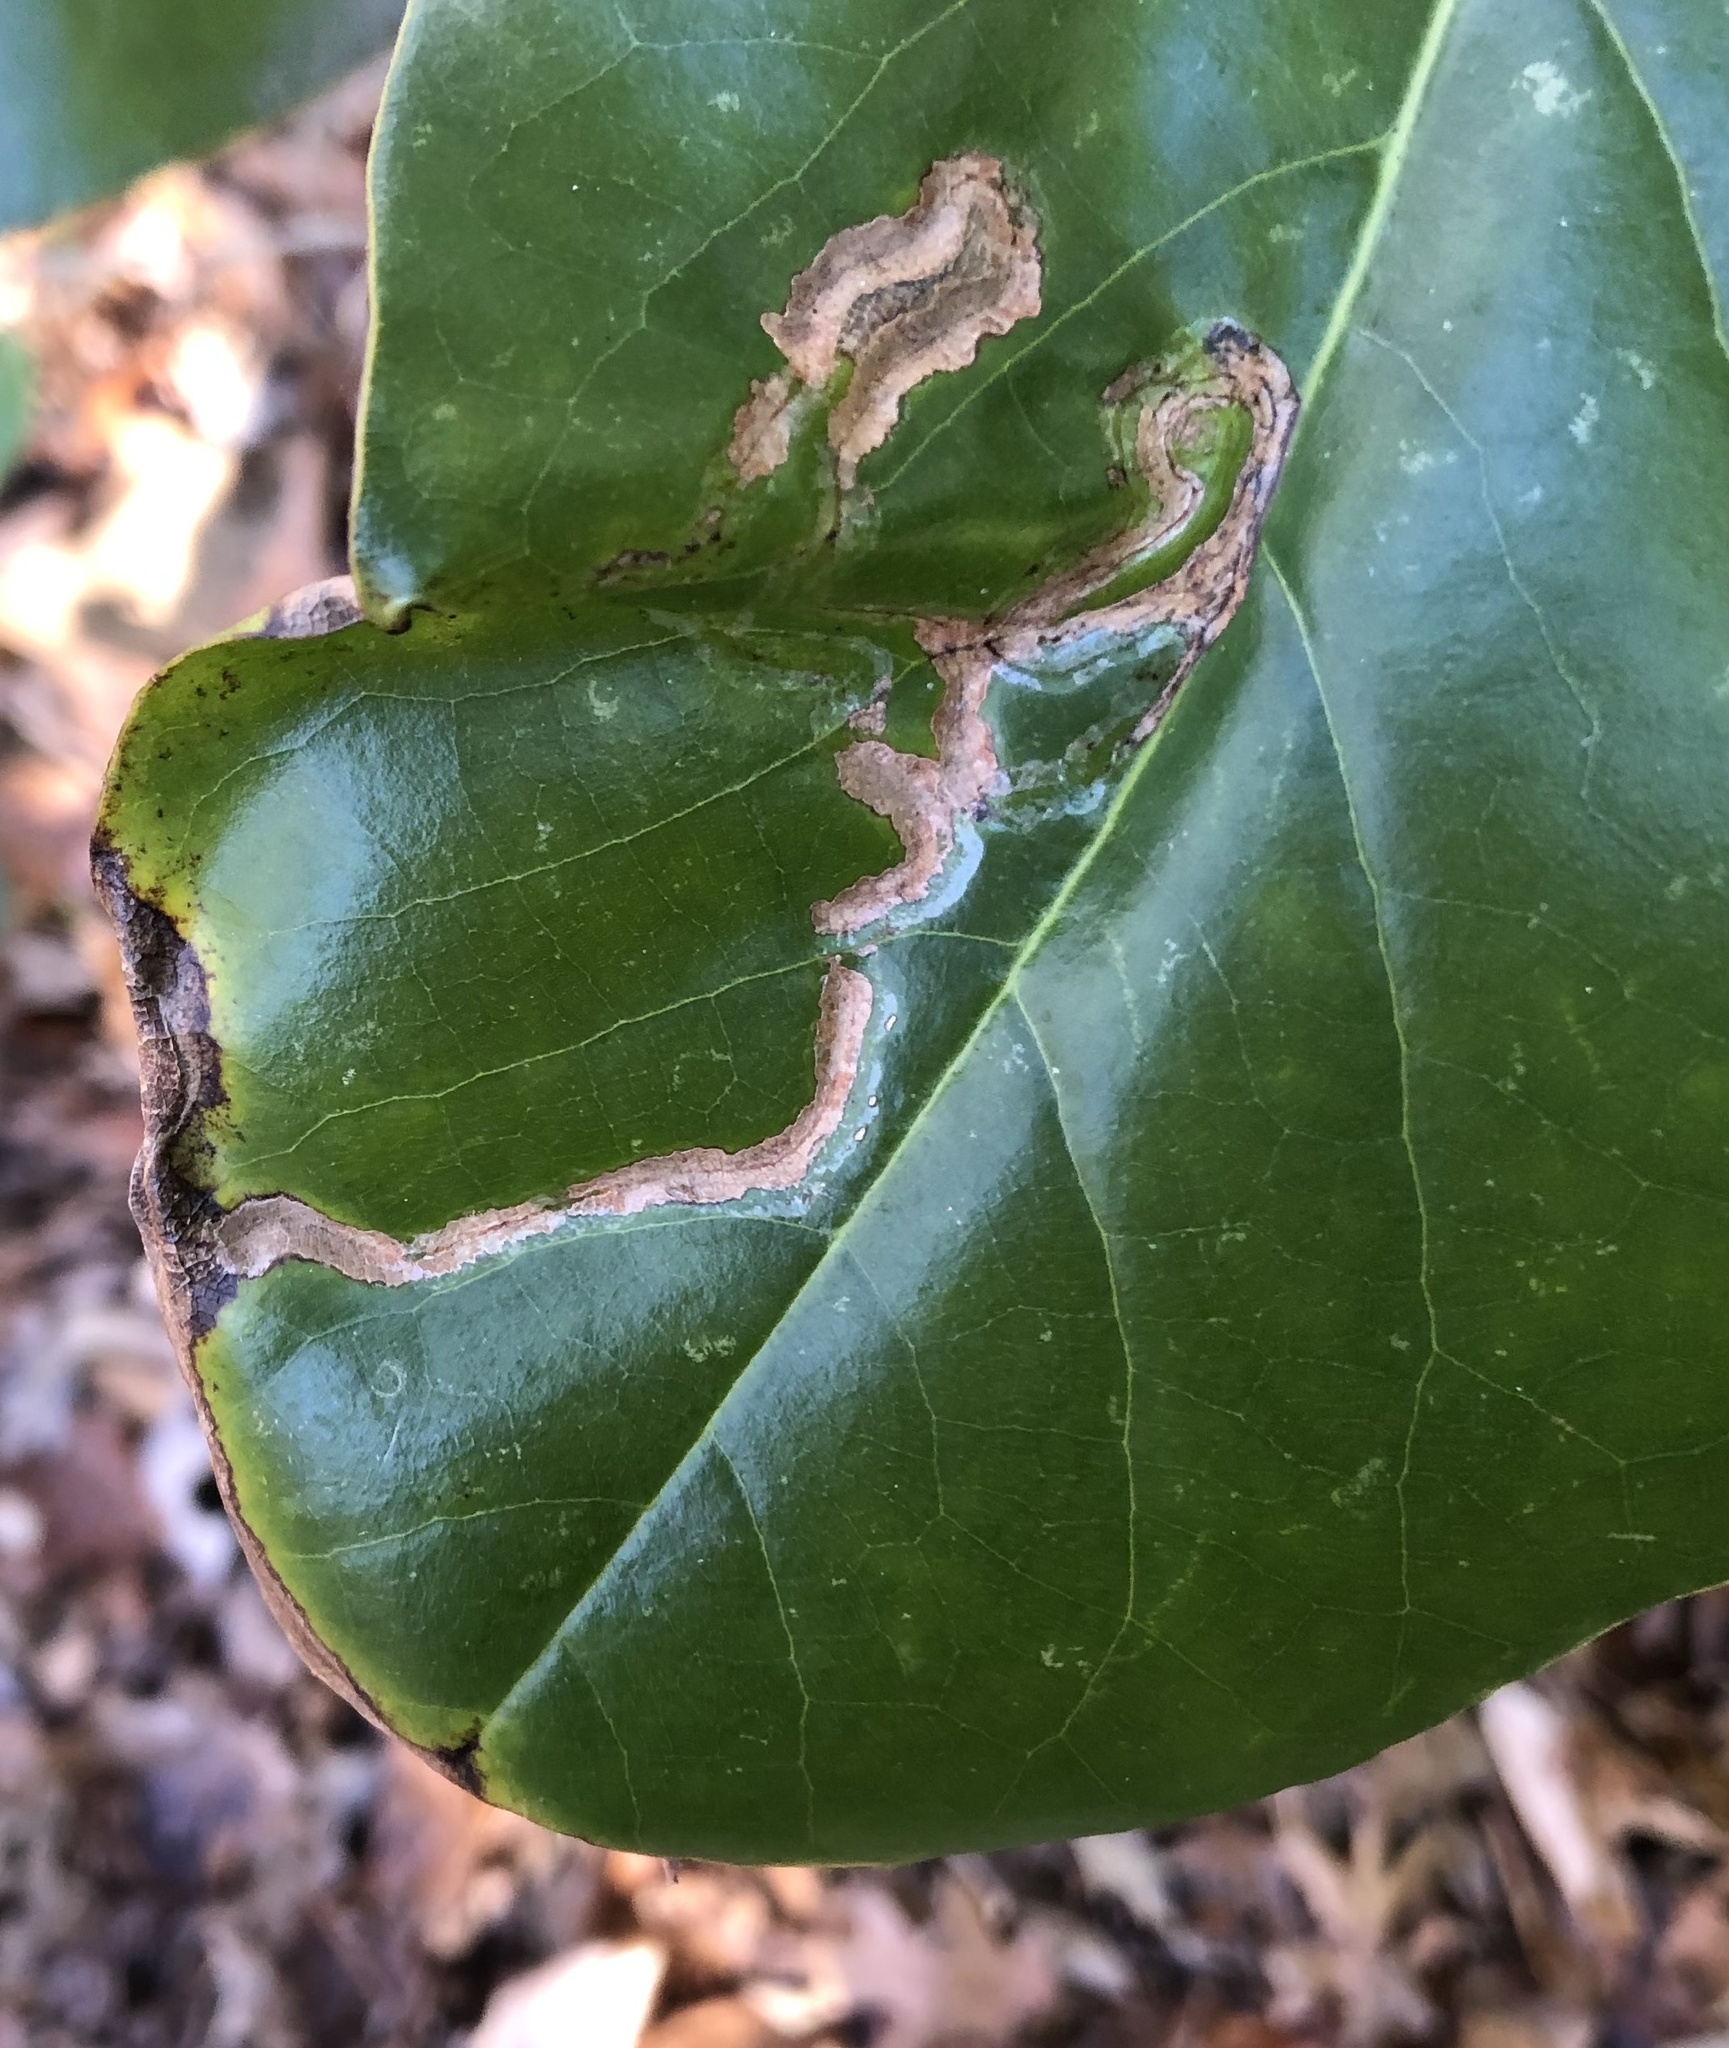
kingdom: Animalia
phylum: Arthropoda
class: Insecta
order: Lepidoptera
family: Gracillariidae
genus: Phyllocnistis
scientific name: Phyllocnistis liriodendronella
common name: Tulip tree leaf miner
